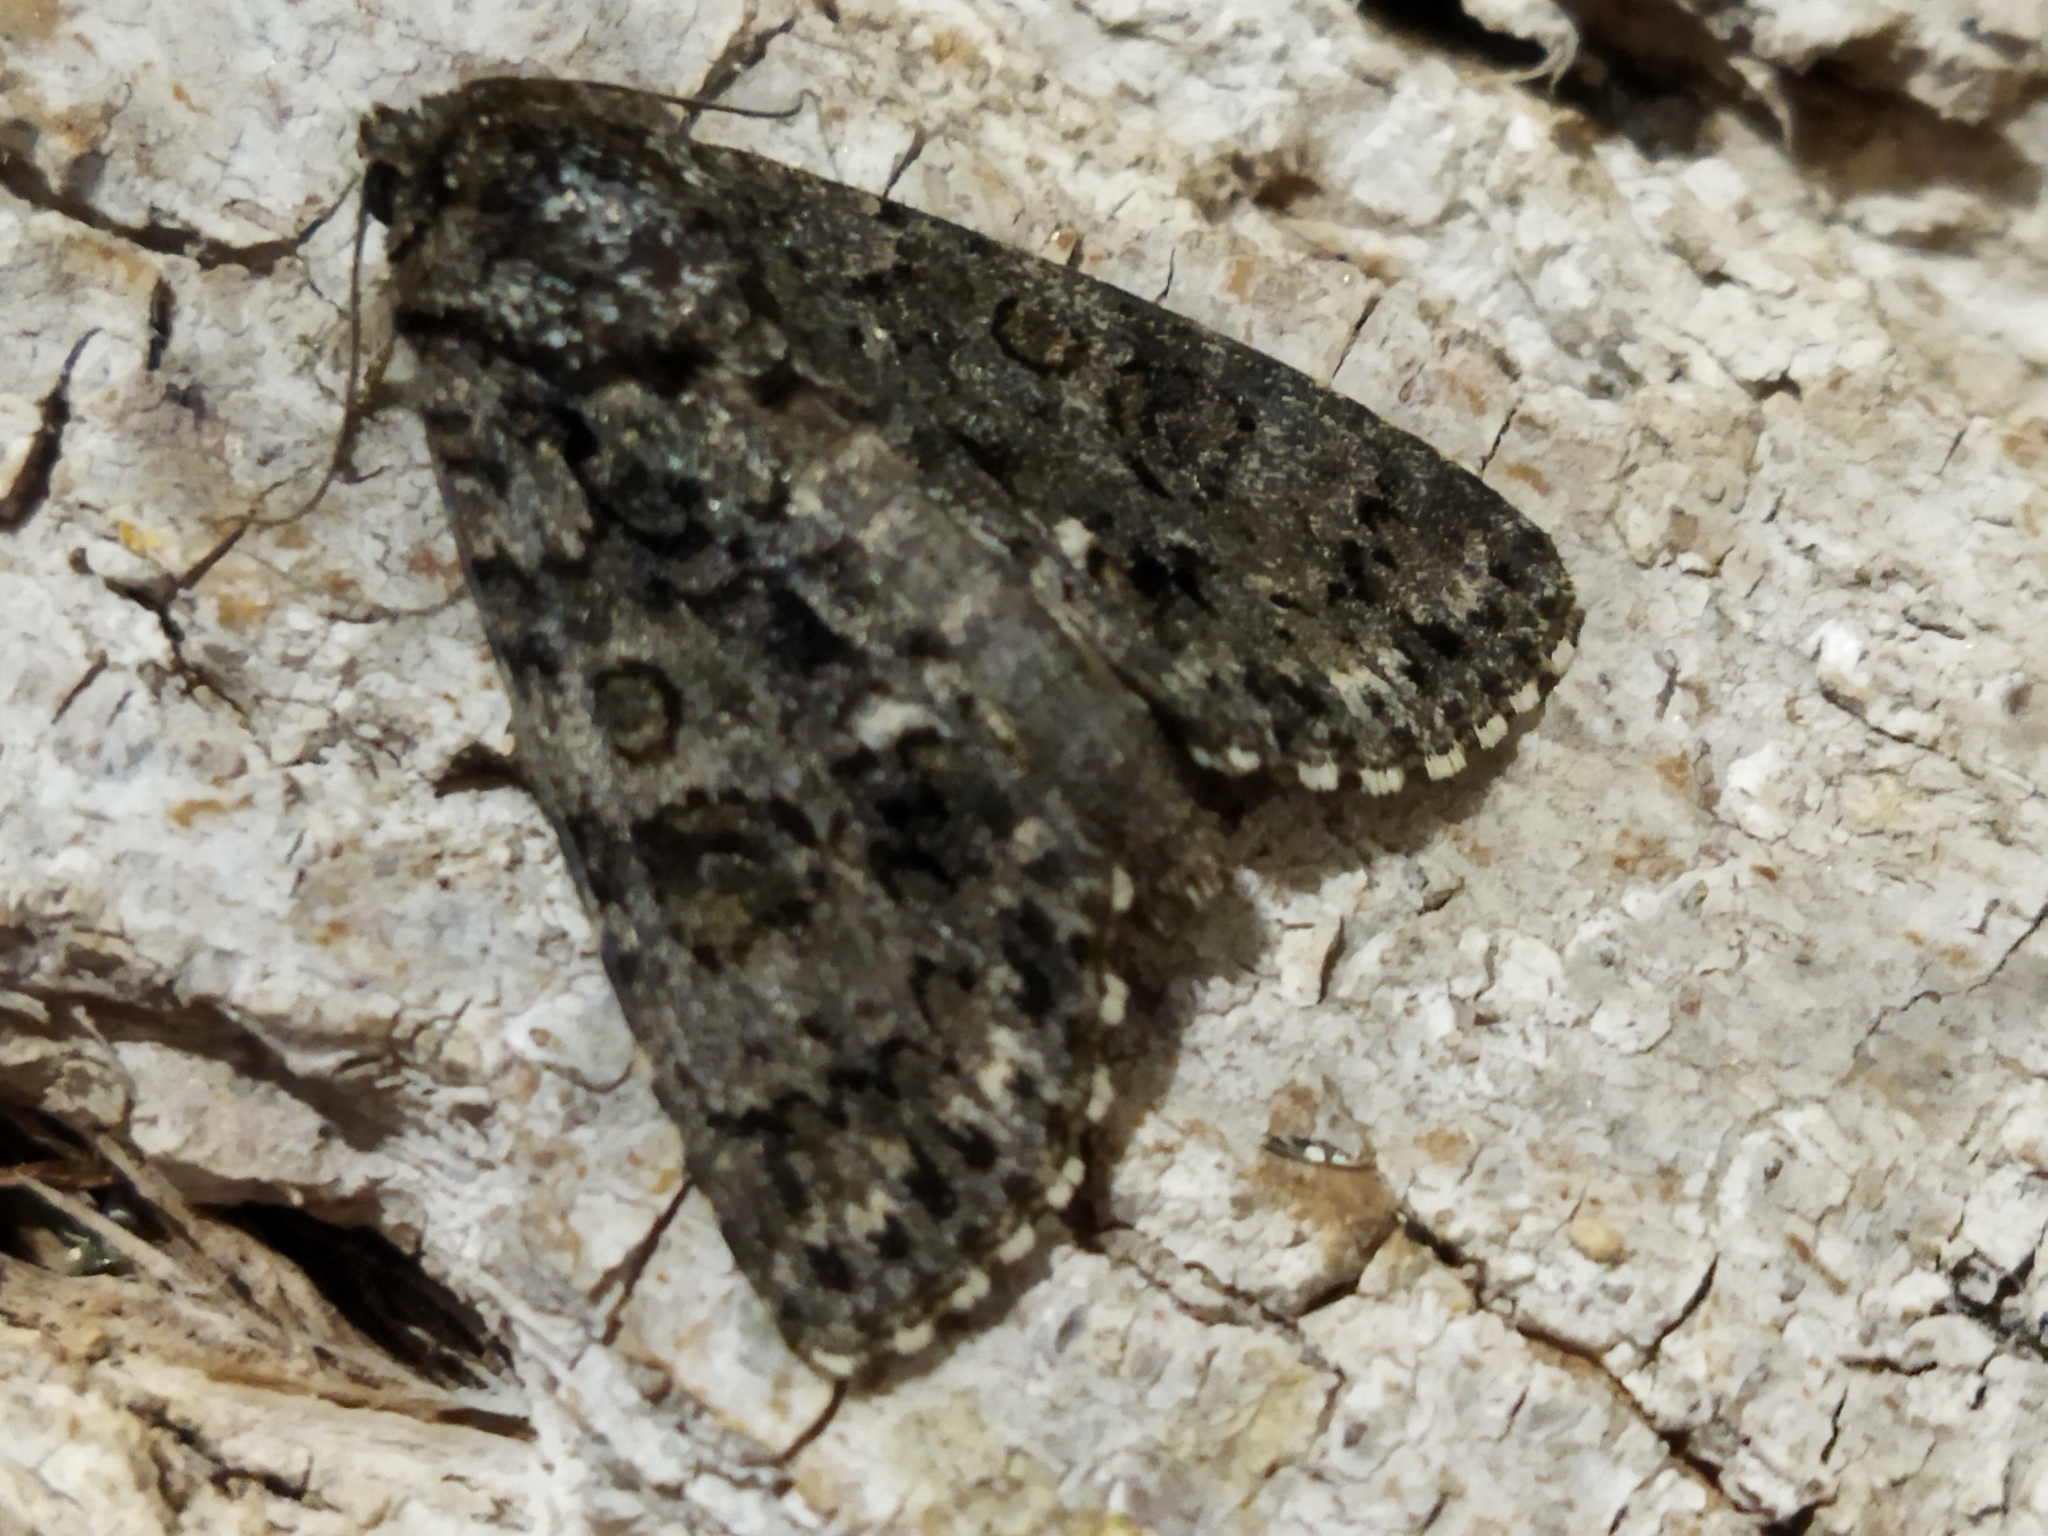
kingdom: Animalia
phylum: Arthropoda
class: Insecta
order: Lepidoptera
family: Noctuidae
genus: Acronicta
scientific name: Acronicta rumicis
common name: Knot grass
